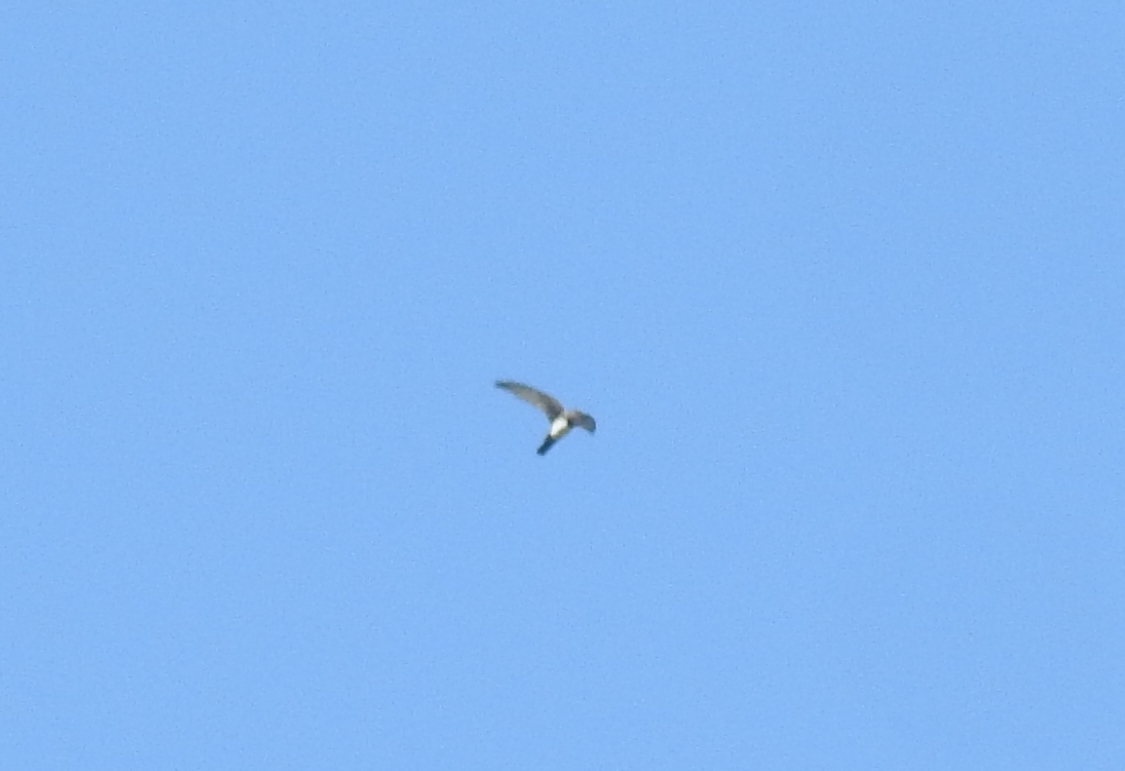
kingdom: Animalia
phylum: Chordata
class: Aves
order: Apodiformes
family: Apodidae
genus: Tachymarptis
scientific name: Tachymarptis melba
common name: Alpine swift
